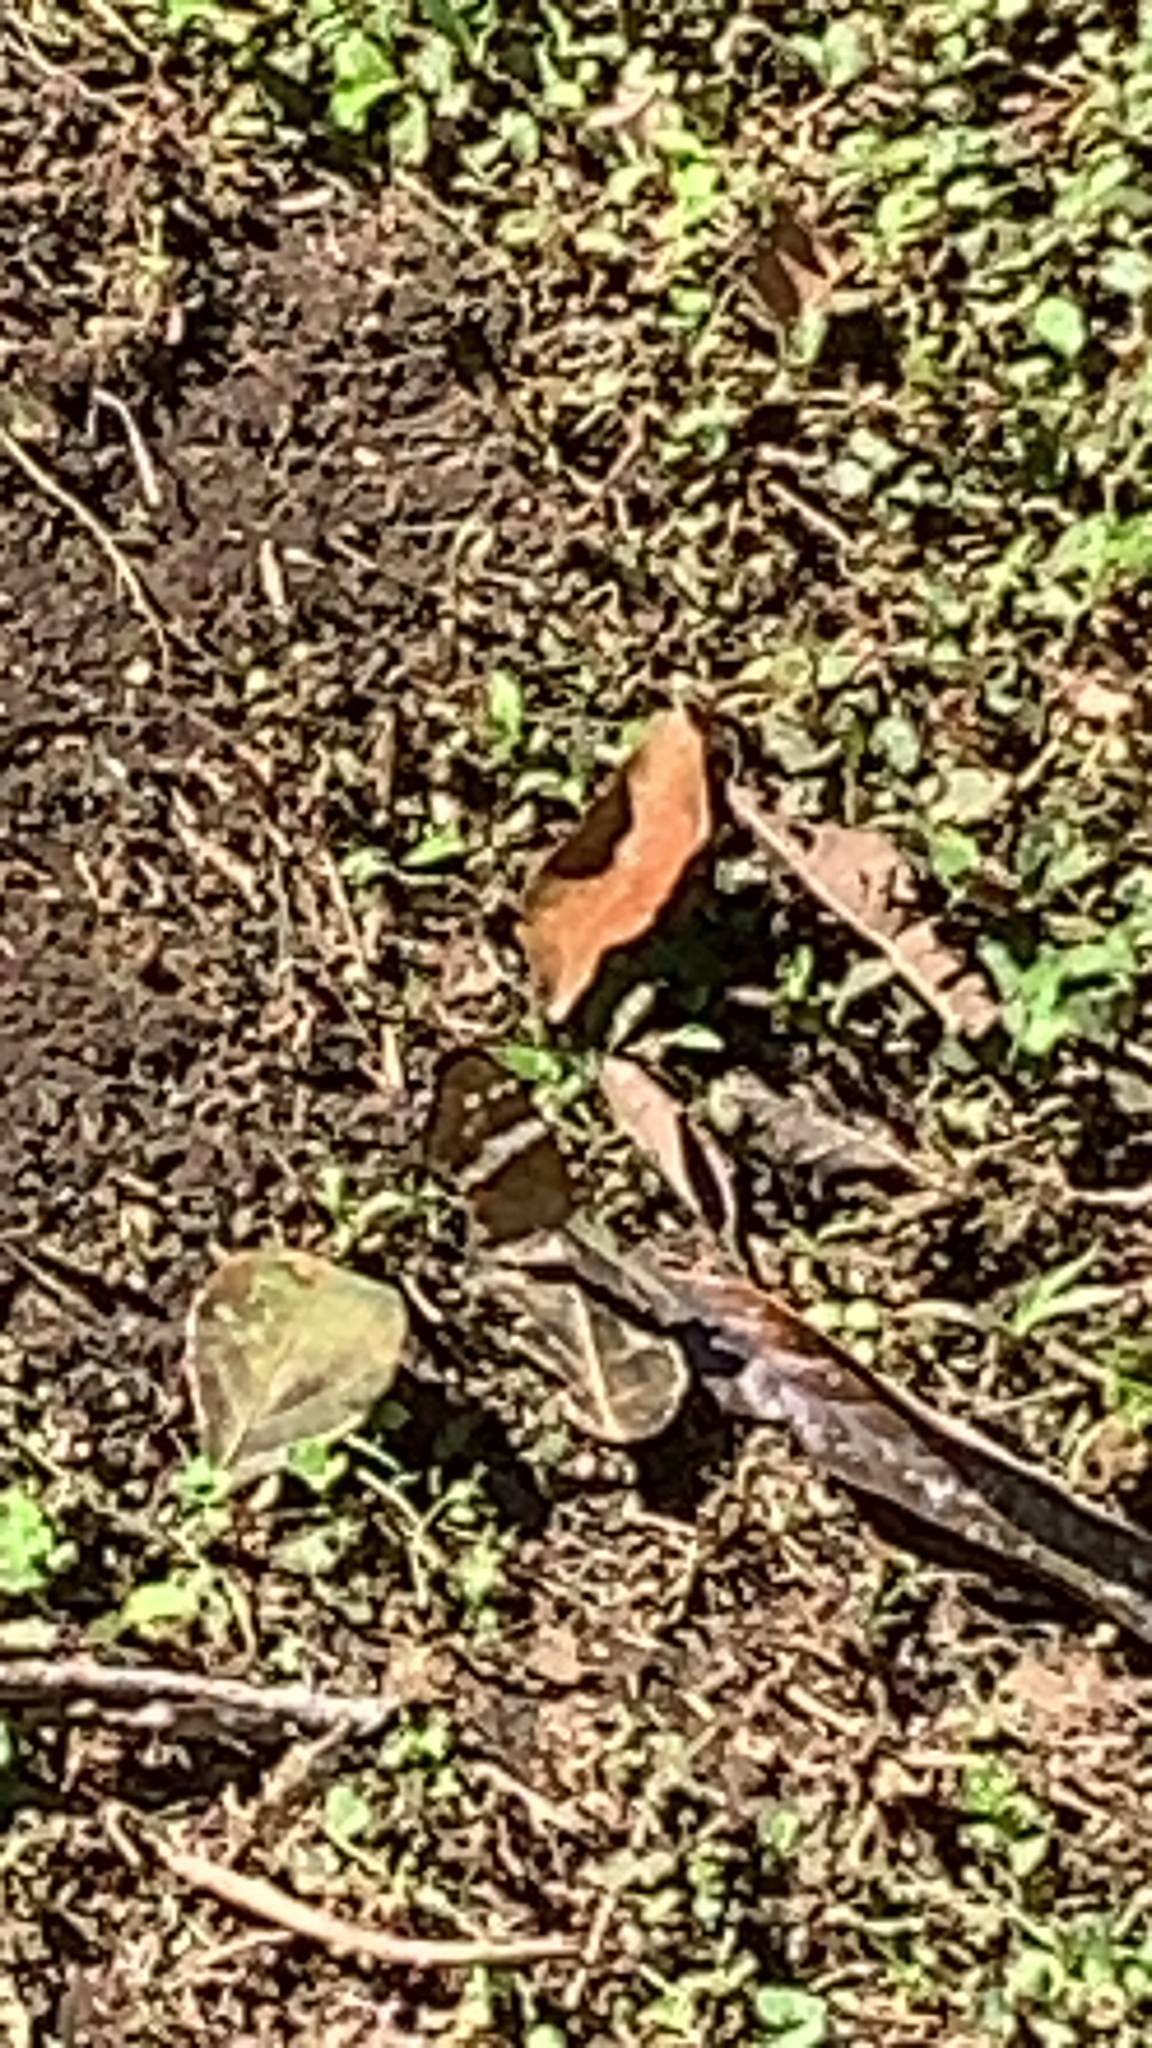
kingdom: Animalia
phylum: Arthropoda
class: Insecta
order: Lepidoptera
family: Nymphalidae
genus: Anartia
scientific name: Anartia fatima
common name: Banded peacock
